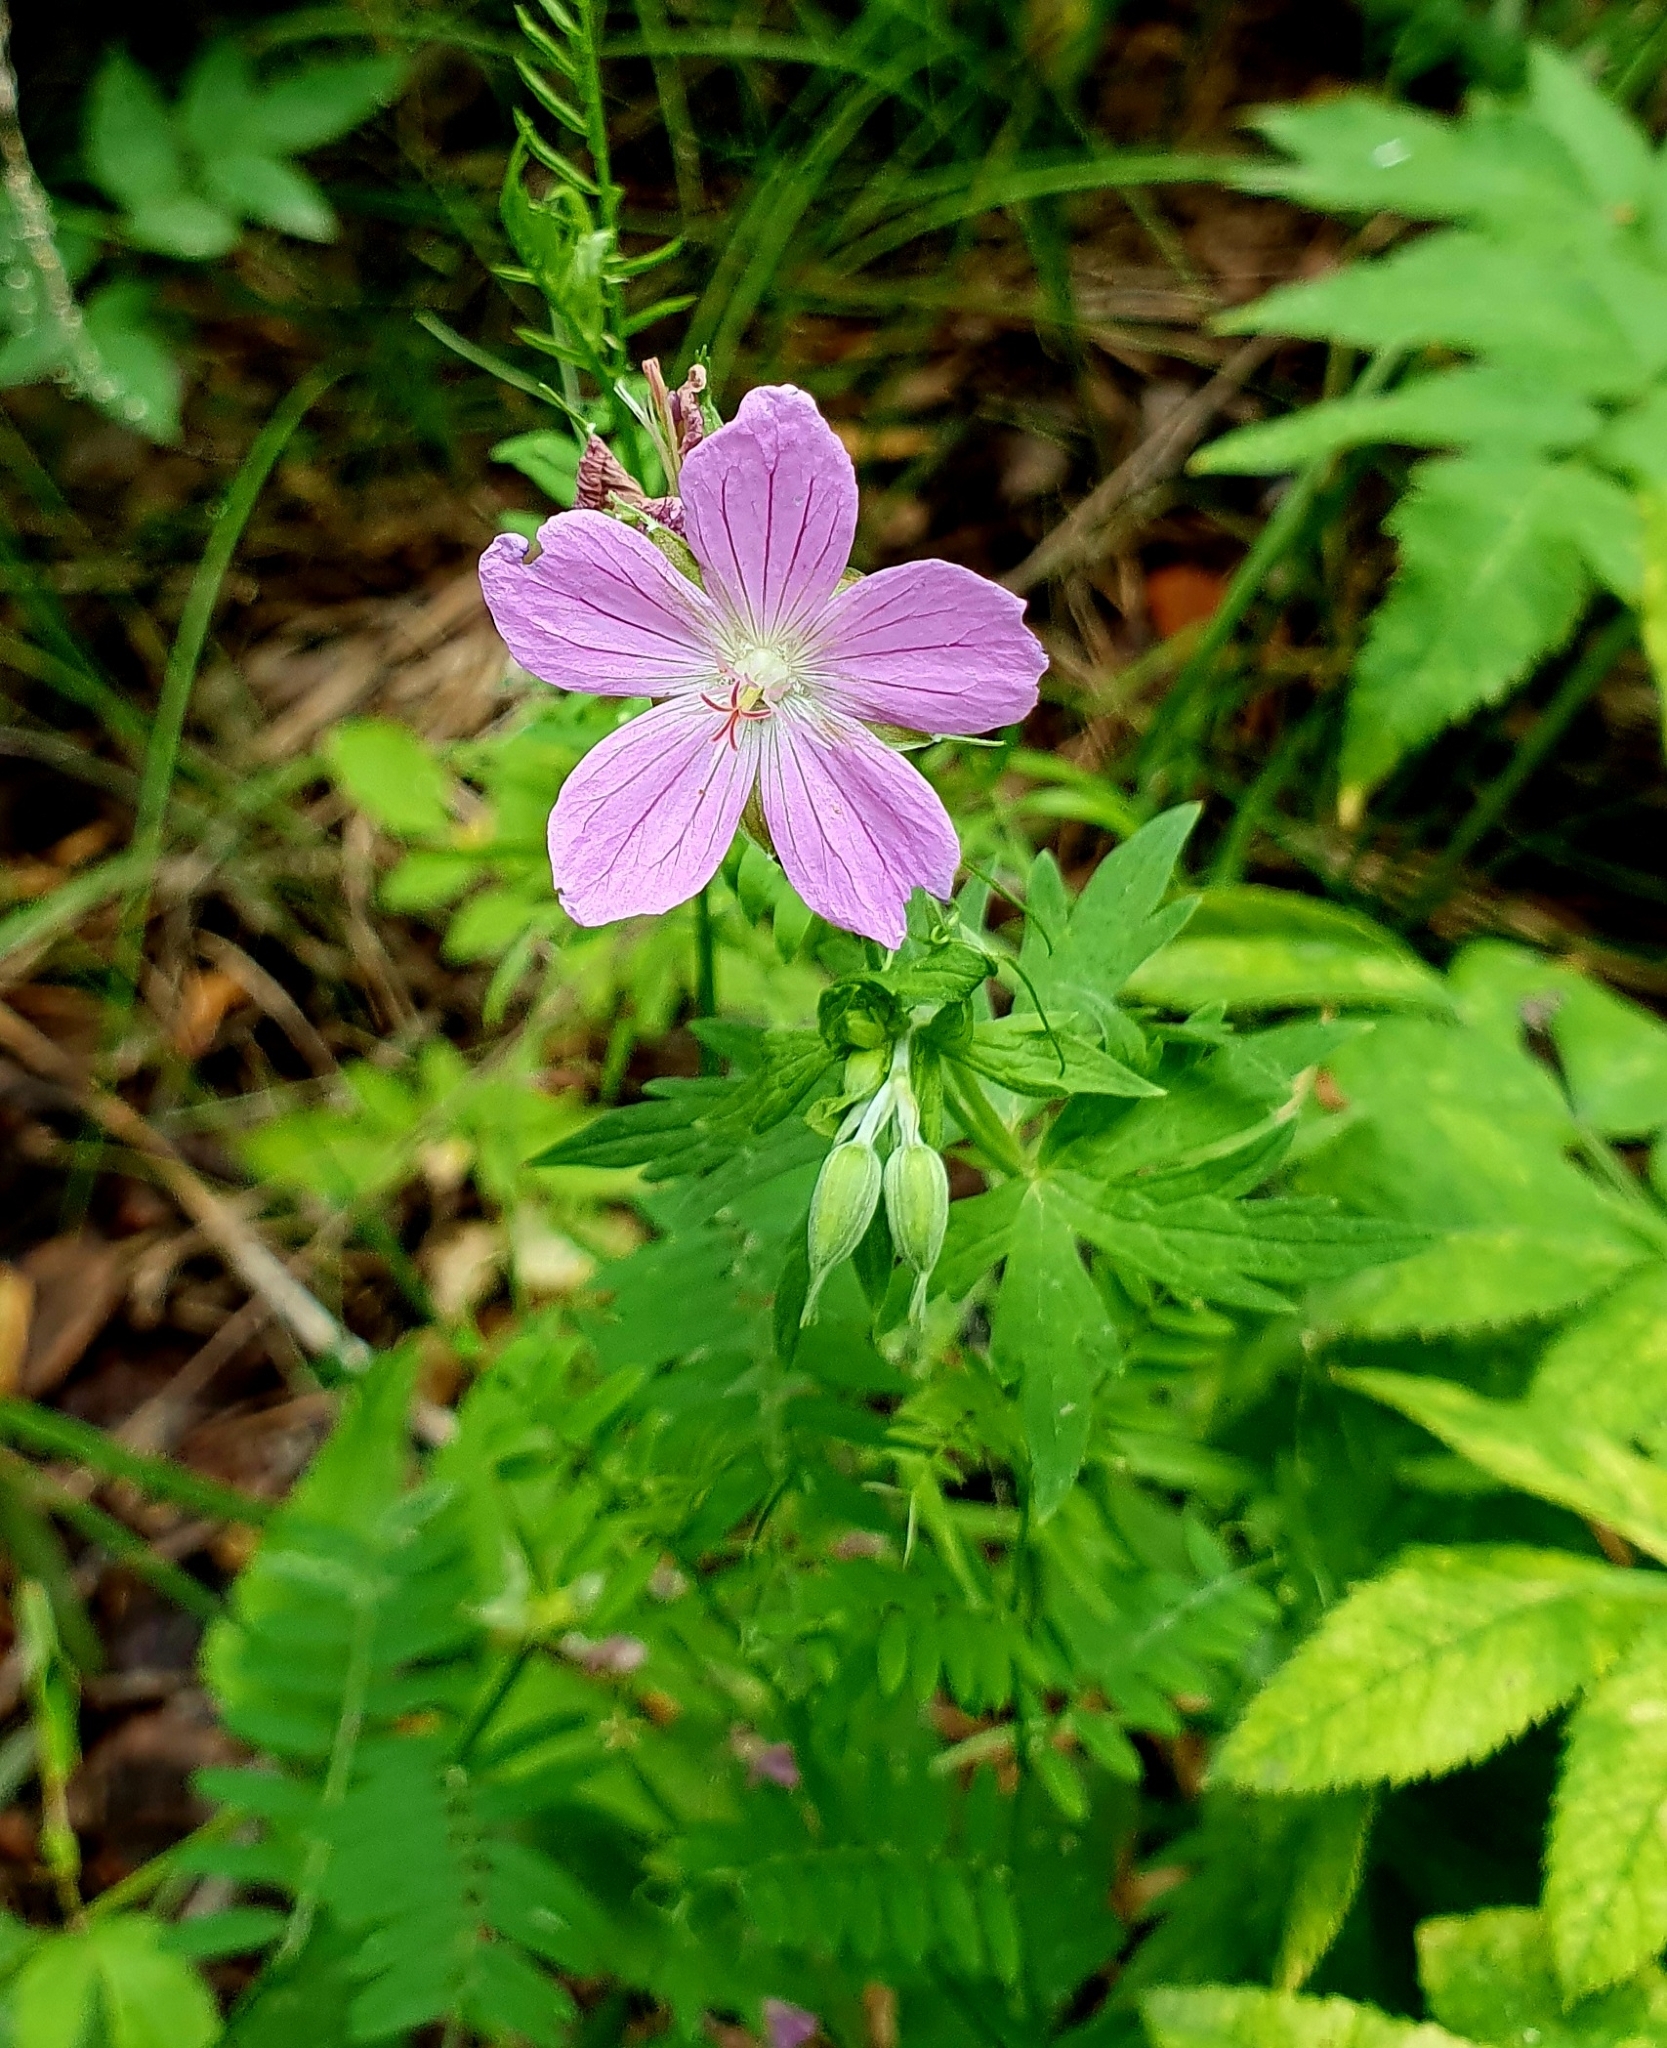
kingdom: Plantae
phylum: Tracheophyta
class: Magnoliopsida
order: Geraniales
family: Geraniaceae
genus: Geranium
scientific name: Geranium collinum
